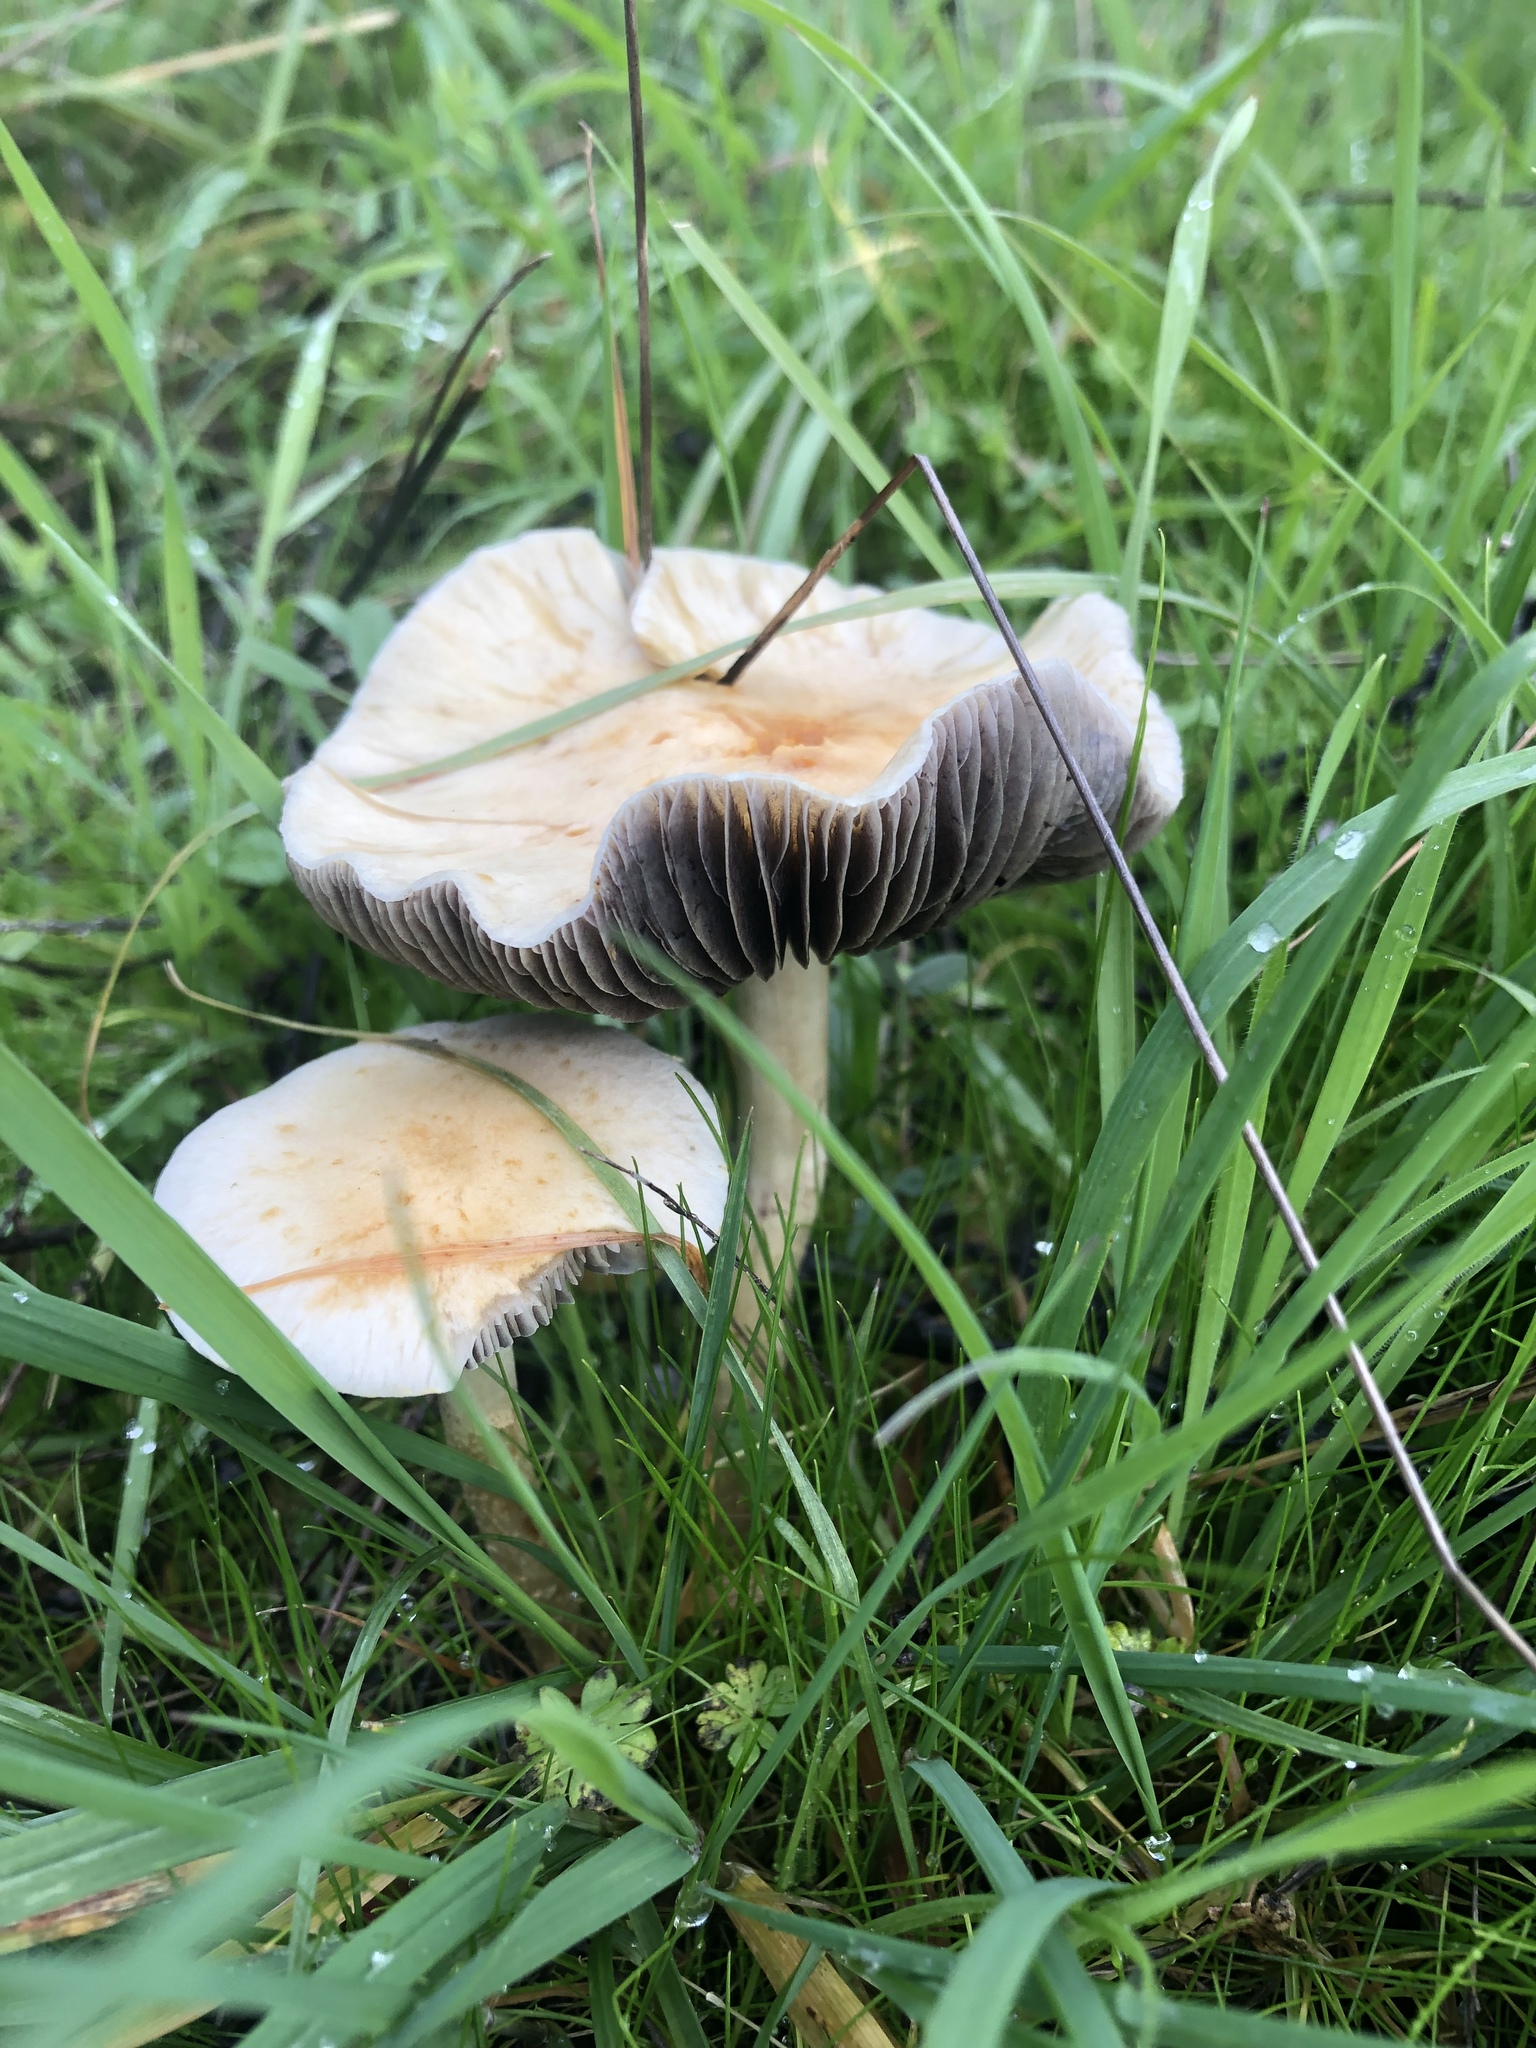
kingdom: Fungi
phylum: Basidiomycota
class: Agaricomycetes
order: Agaricales
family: Strophariaceae
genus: Leratiomyces
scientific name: Leratiomyces percevalii
